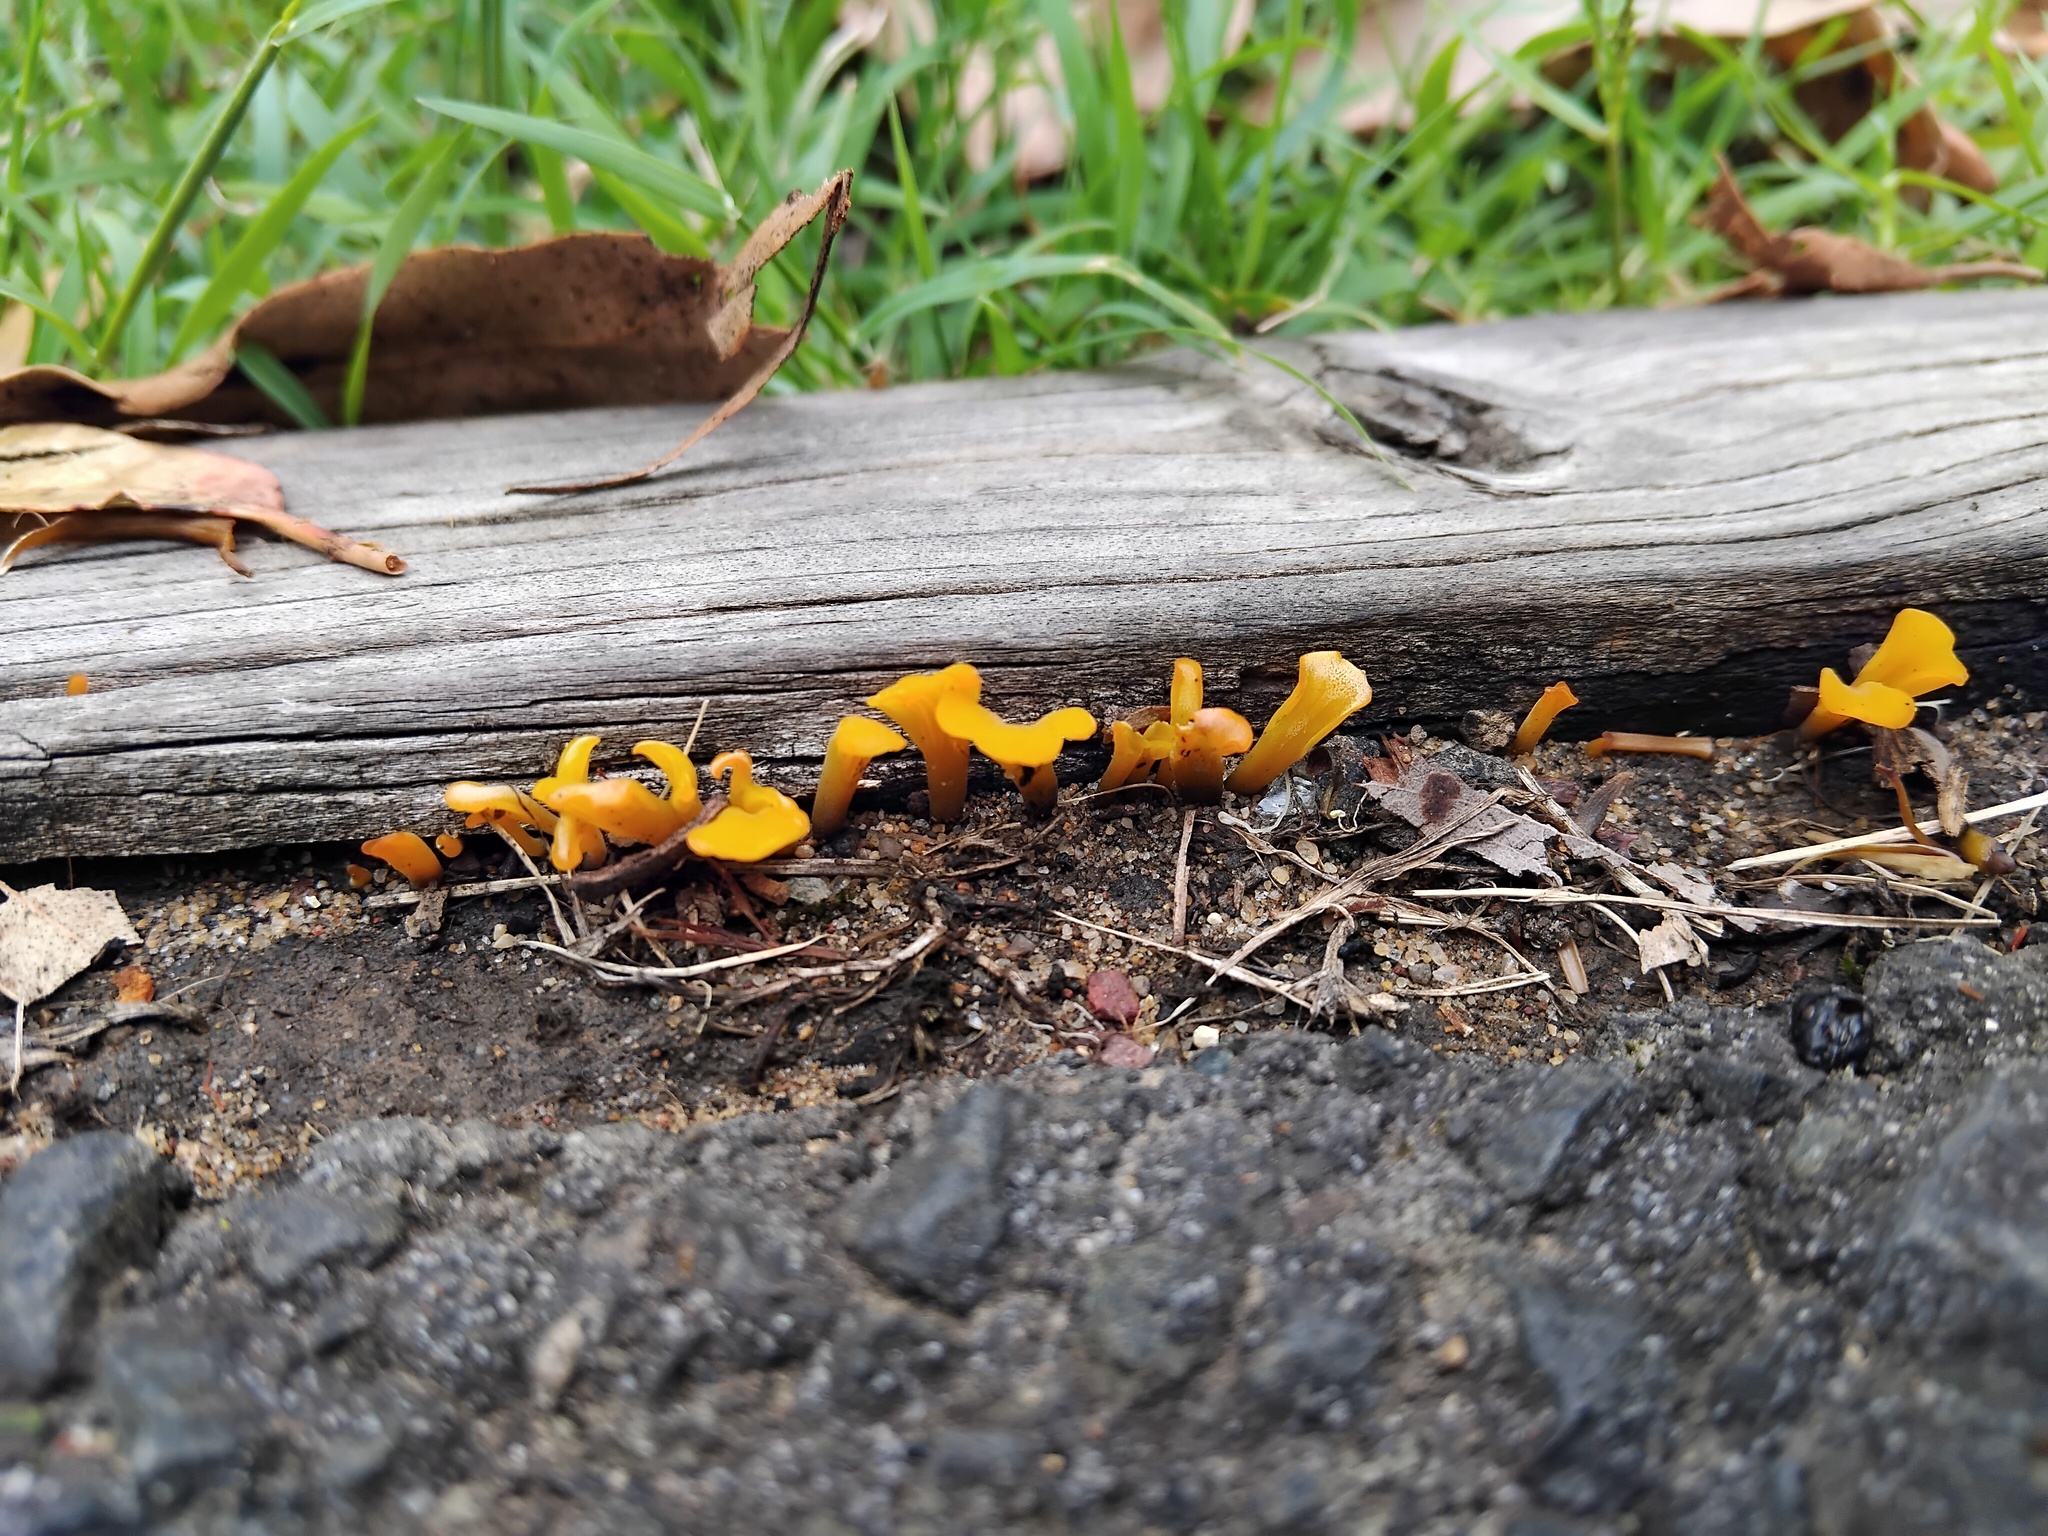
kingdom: Fungi
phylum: Basidiomycota
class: Dacrymycetes
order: Dacrymycetales
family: Dacrymycetaceae
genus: Dacrymyces
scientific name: Dacrymyces spathularius
